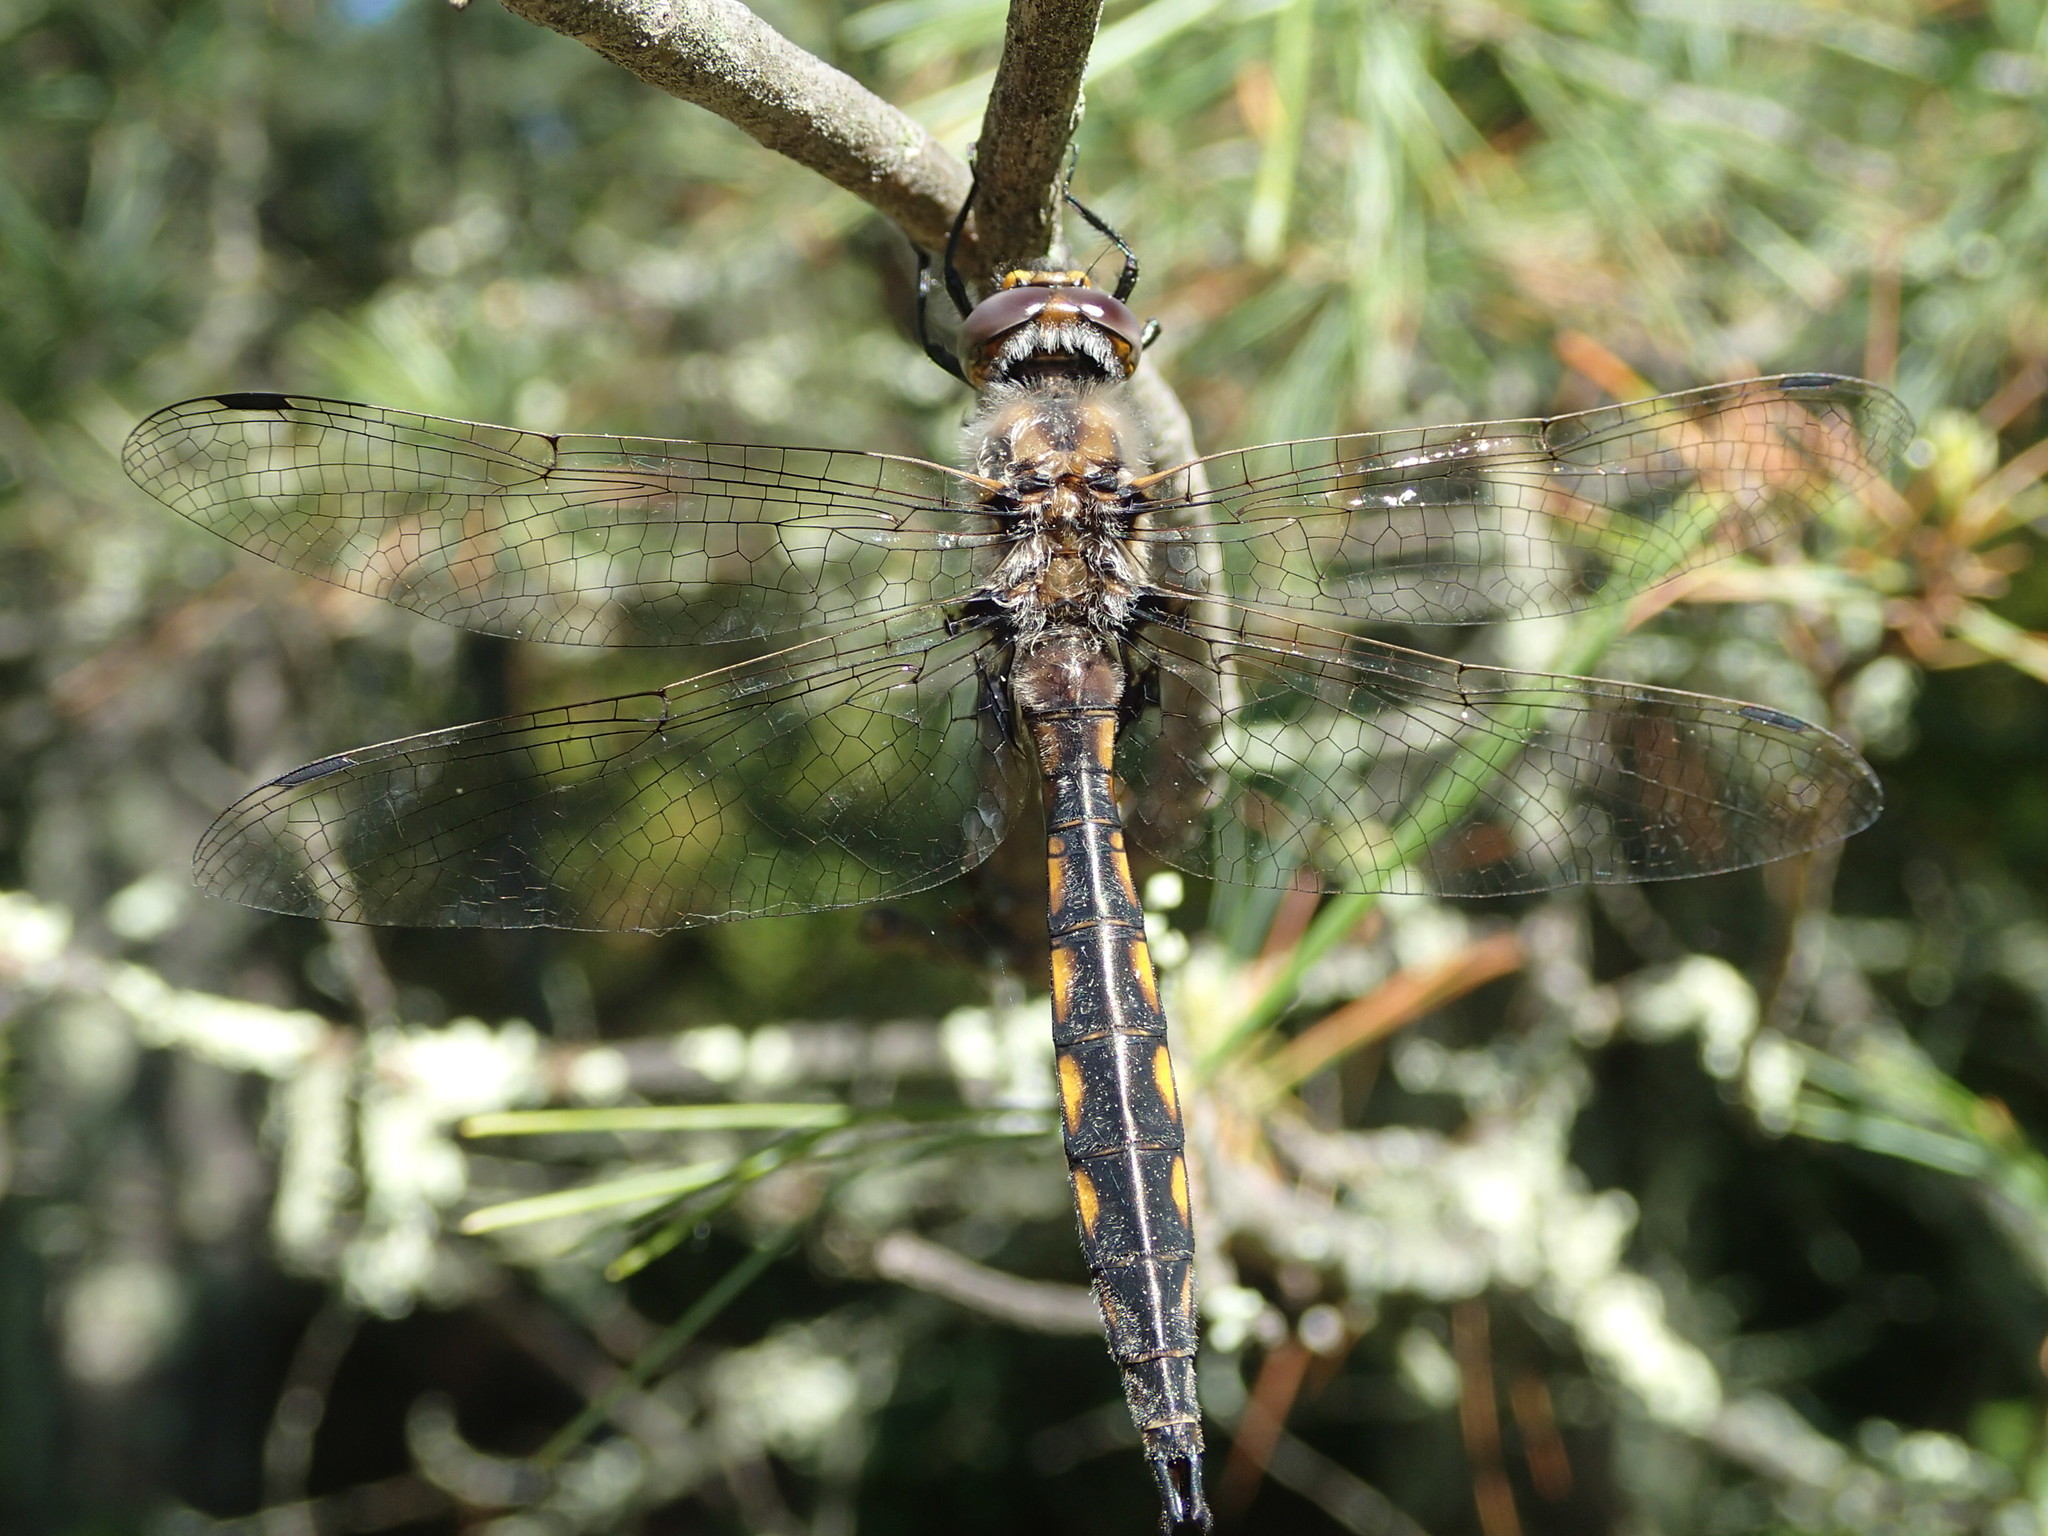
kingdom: Animalia
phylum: Arthropoda
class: Insecta
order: Odonata
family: Corduliidae
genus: Epitheca
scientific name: Epitheca canis
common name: Beaverpond baskettail
